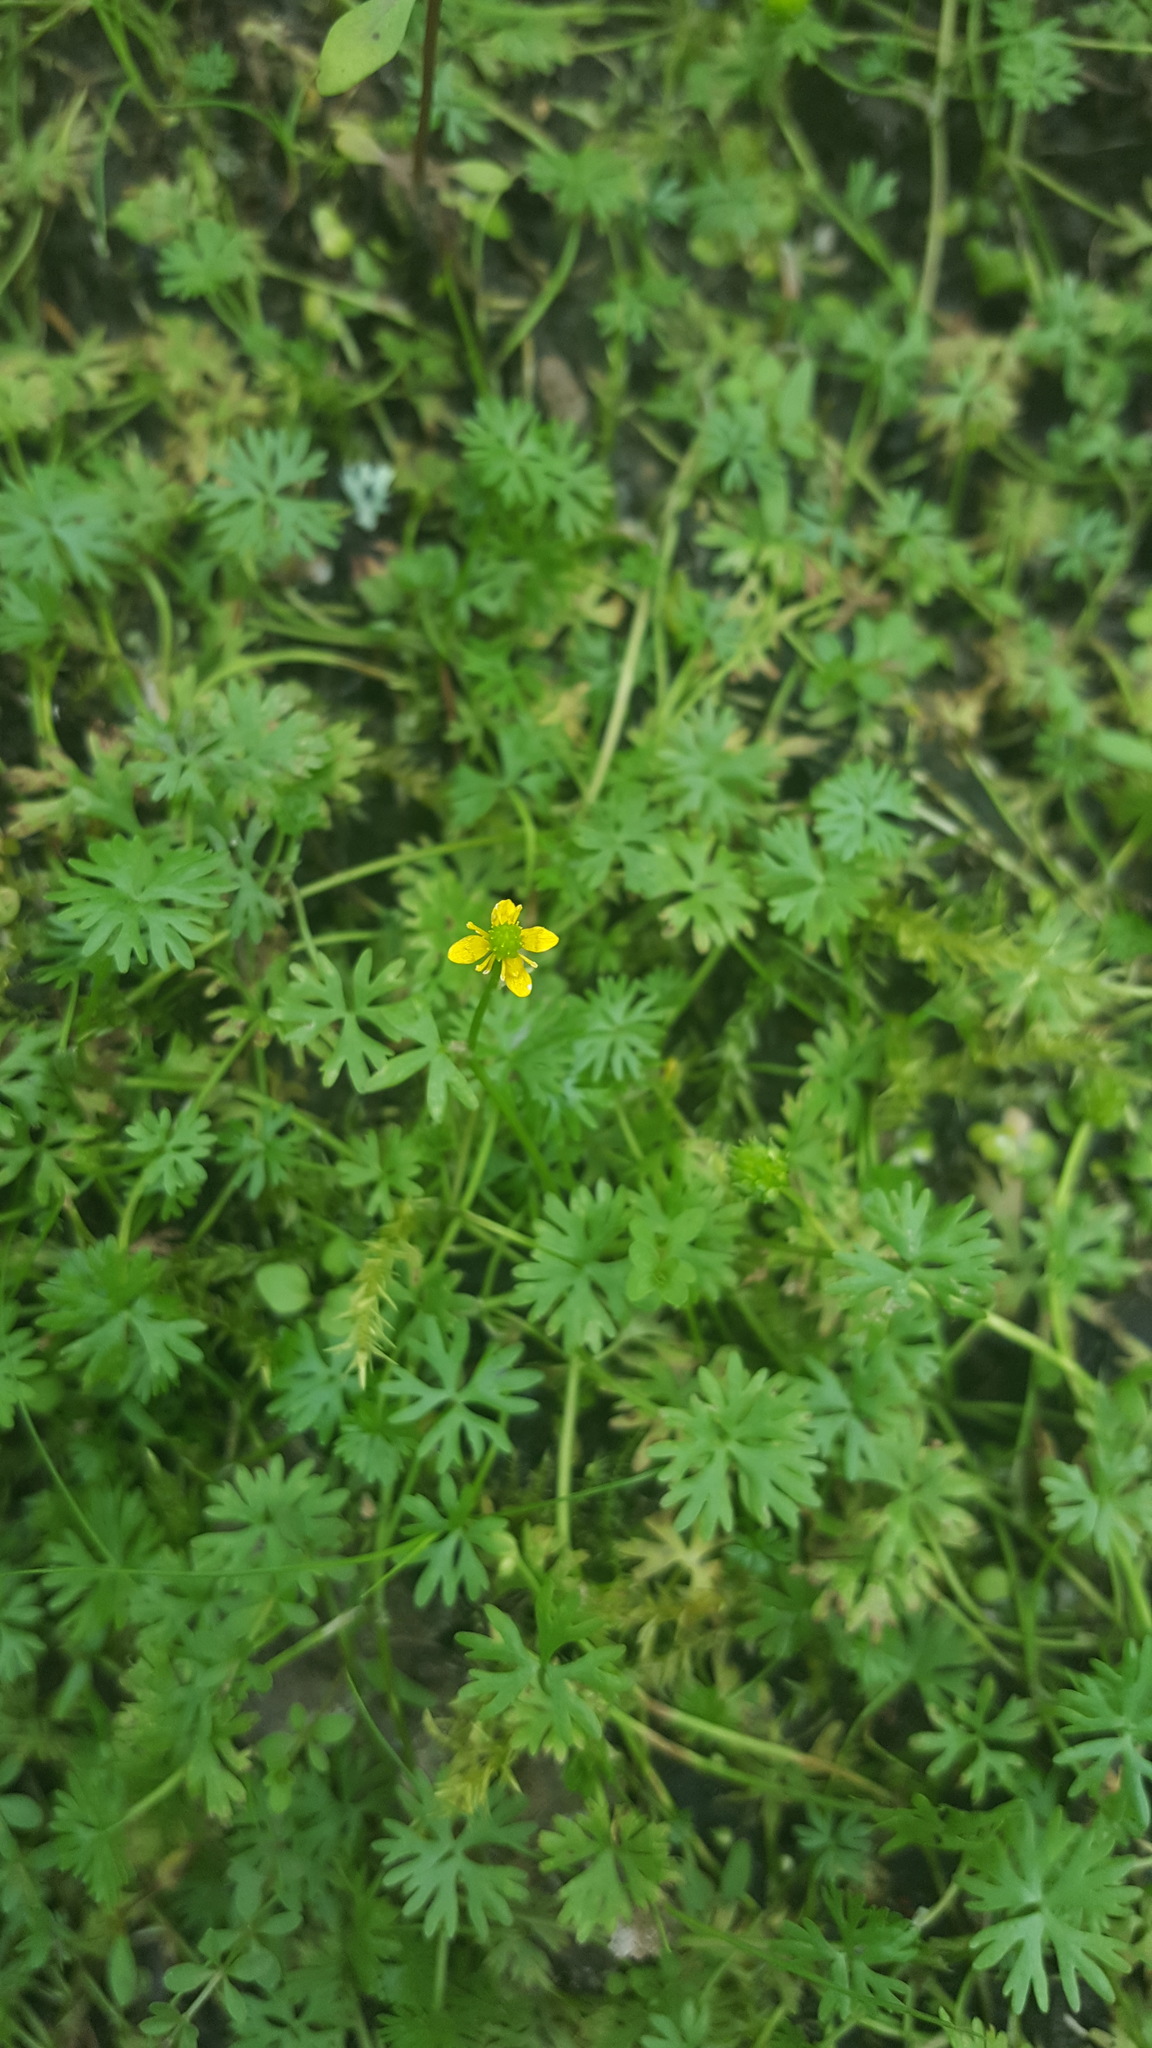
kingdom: Plantae
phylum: Tracheophyta
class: Magnoliopsida
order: Ranunculales
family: Ranunculaceae
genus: Ranunculus
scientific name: Ranunculus gmelinii
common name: Gmelin's buttercup
